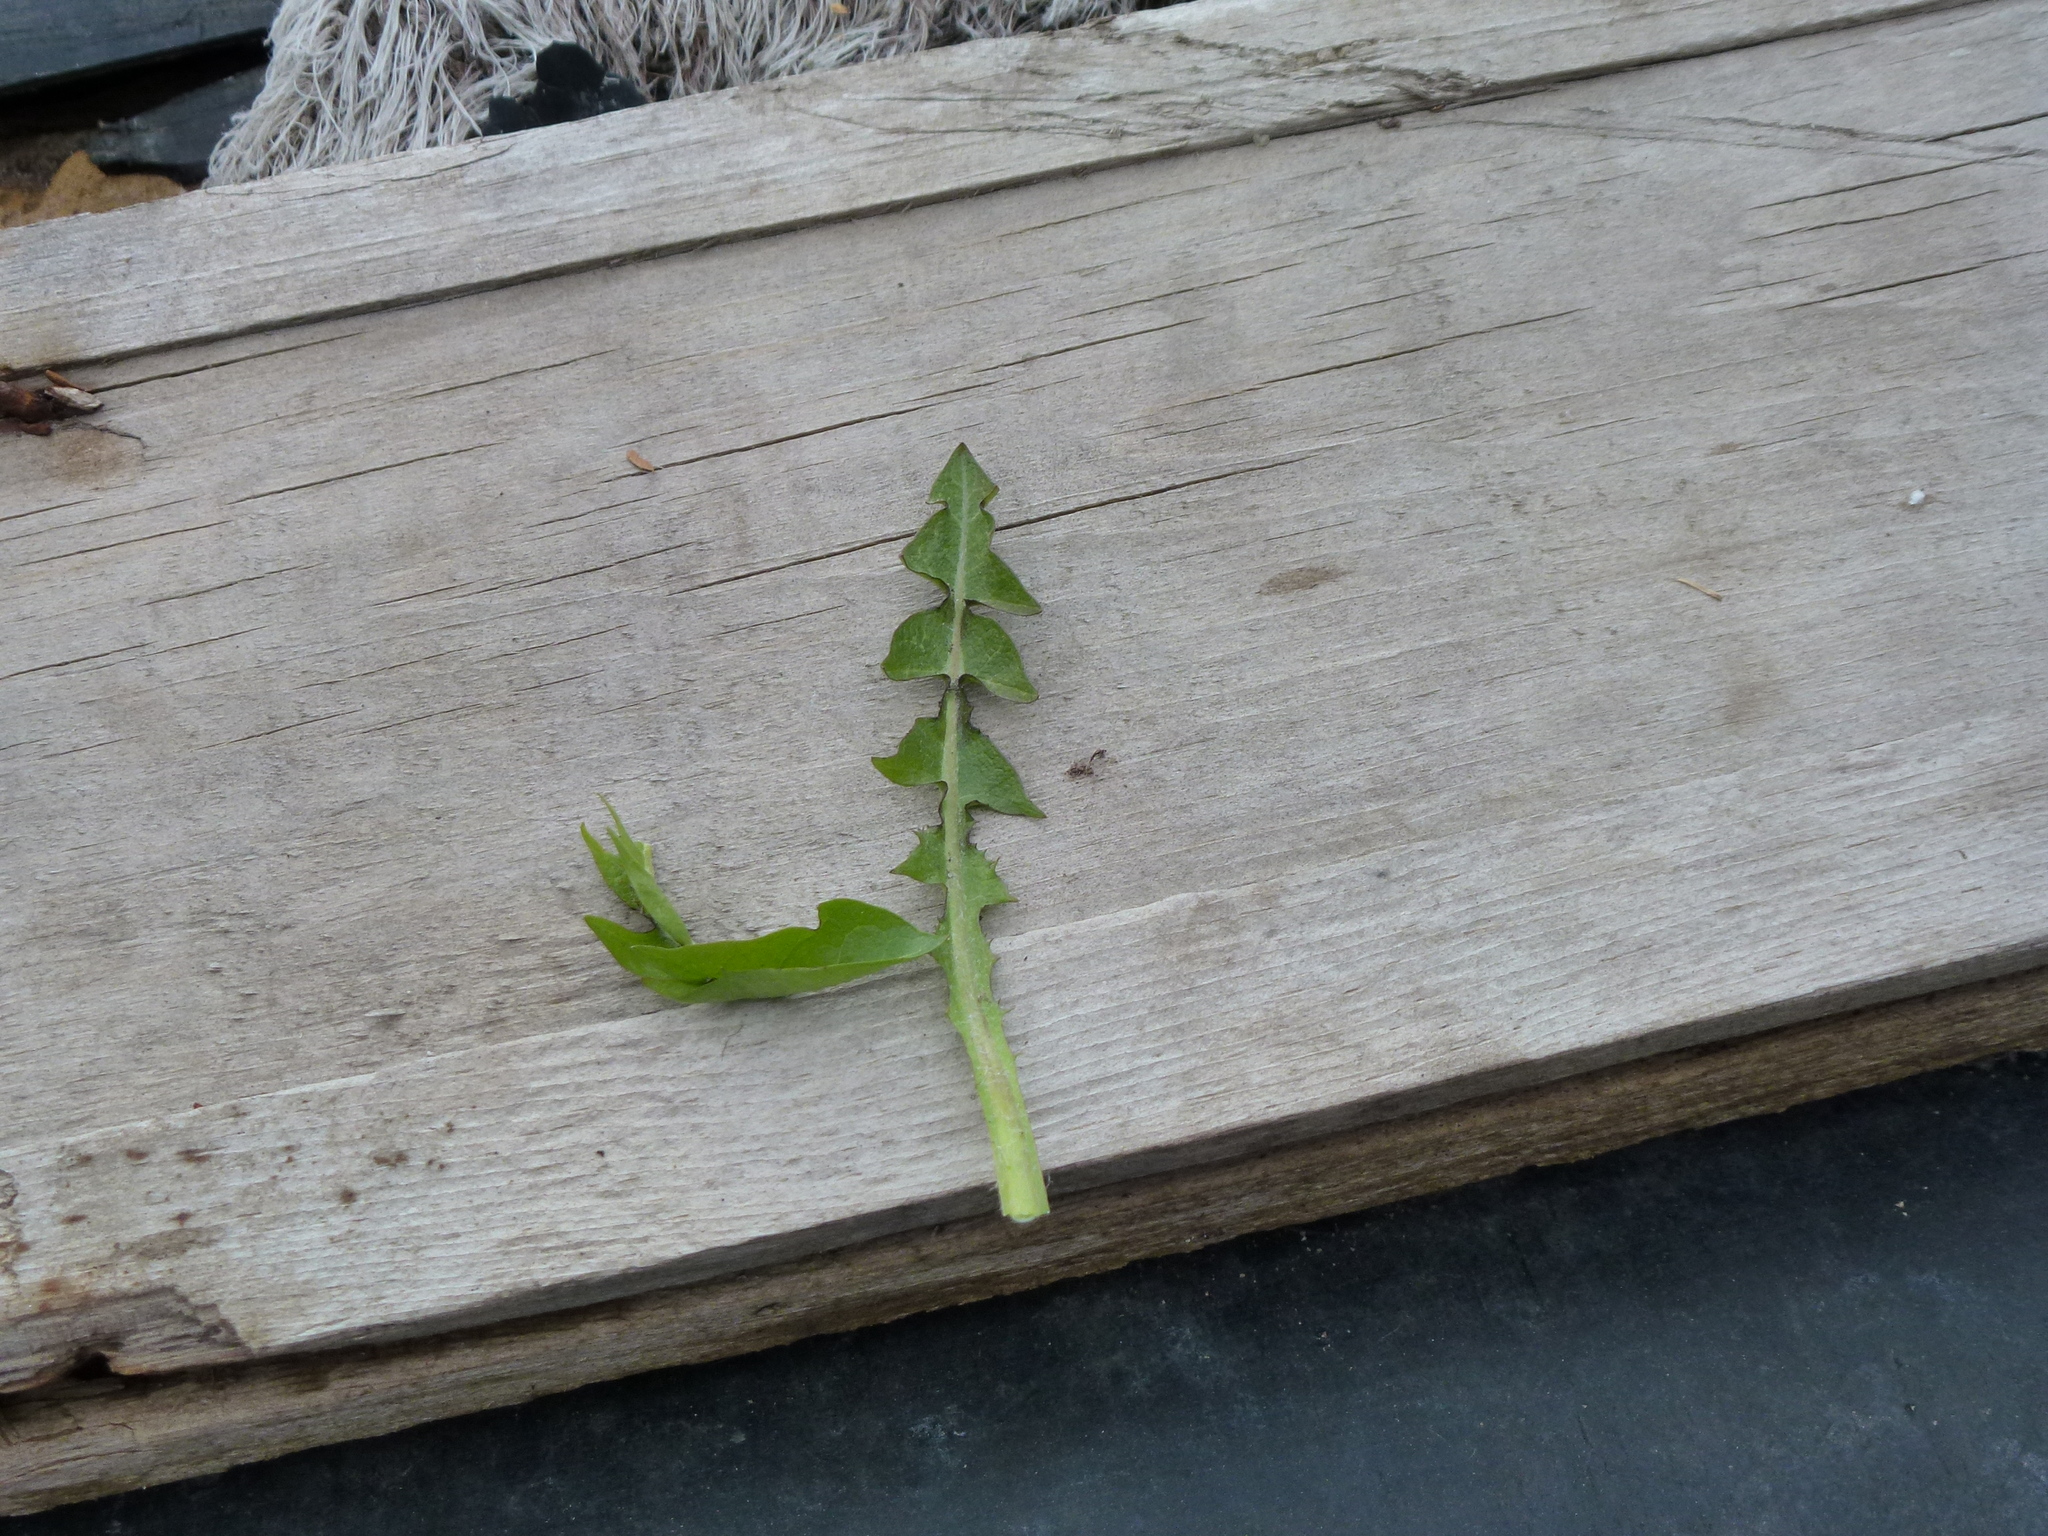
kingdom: Plantae
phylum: Tracheophyta
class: Magnoliopsida
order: Asterales
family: Asteraceae
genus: Taraxacum
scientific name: Taraxacum officinale
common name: Common dandelion
